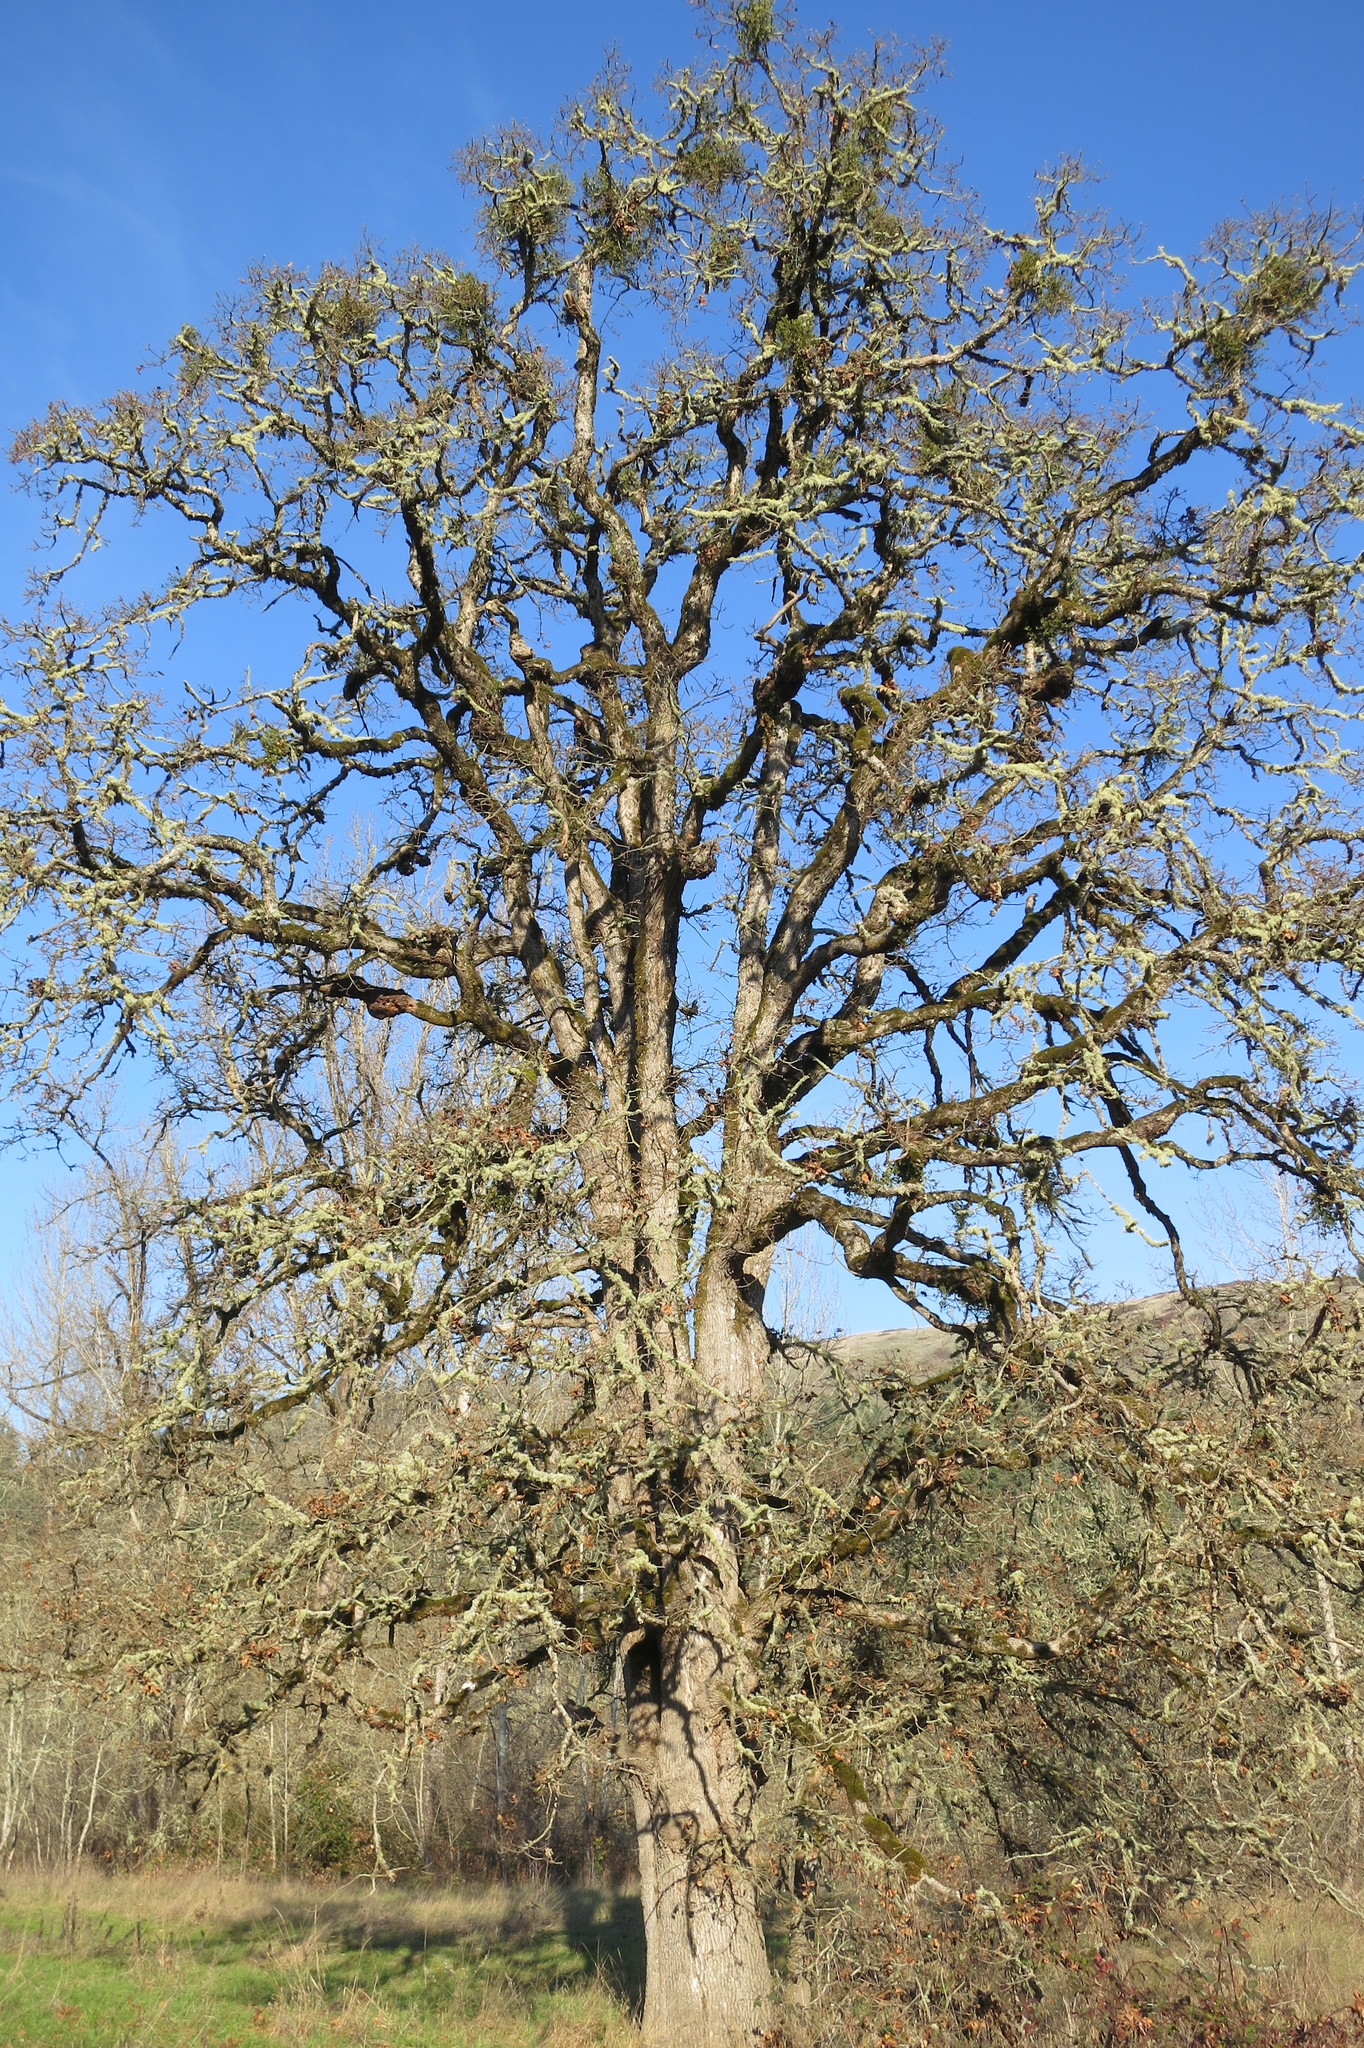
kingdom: Plantae
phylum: Tracheophyta
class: Magnoliopsida
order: Santalales
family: Viscaceae
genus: Phoradendron
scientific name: Phoradendron leucarpum
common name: Pacific mistletoe
